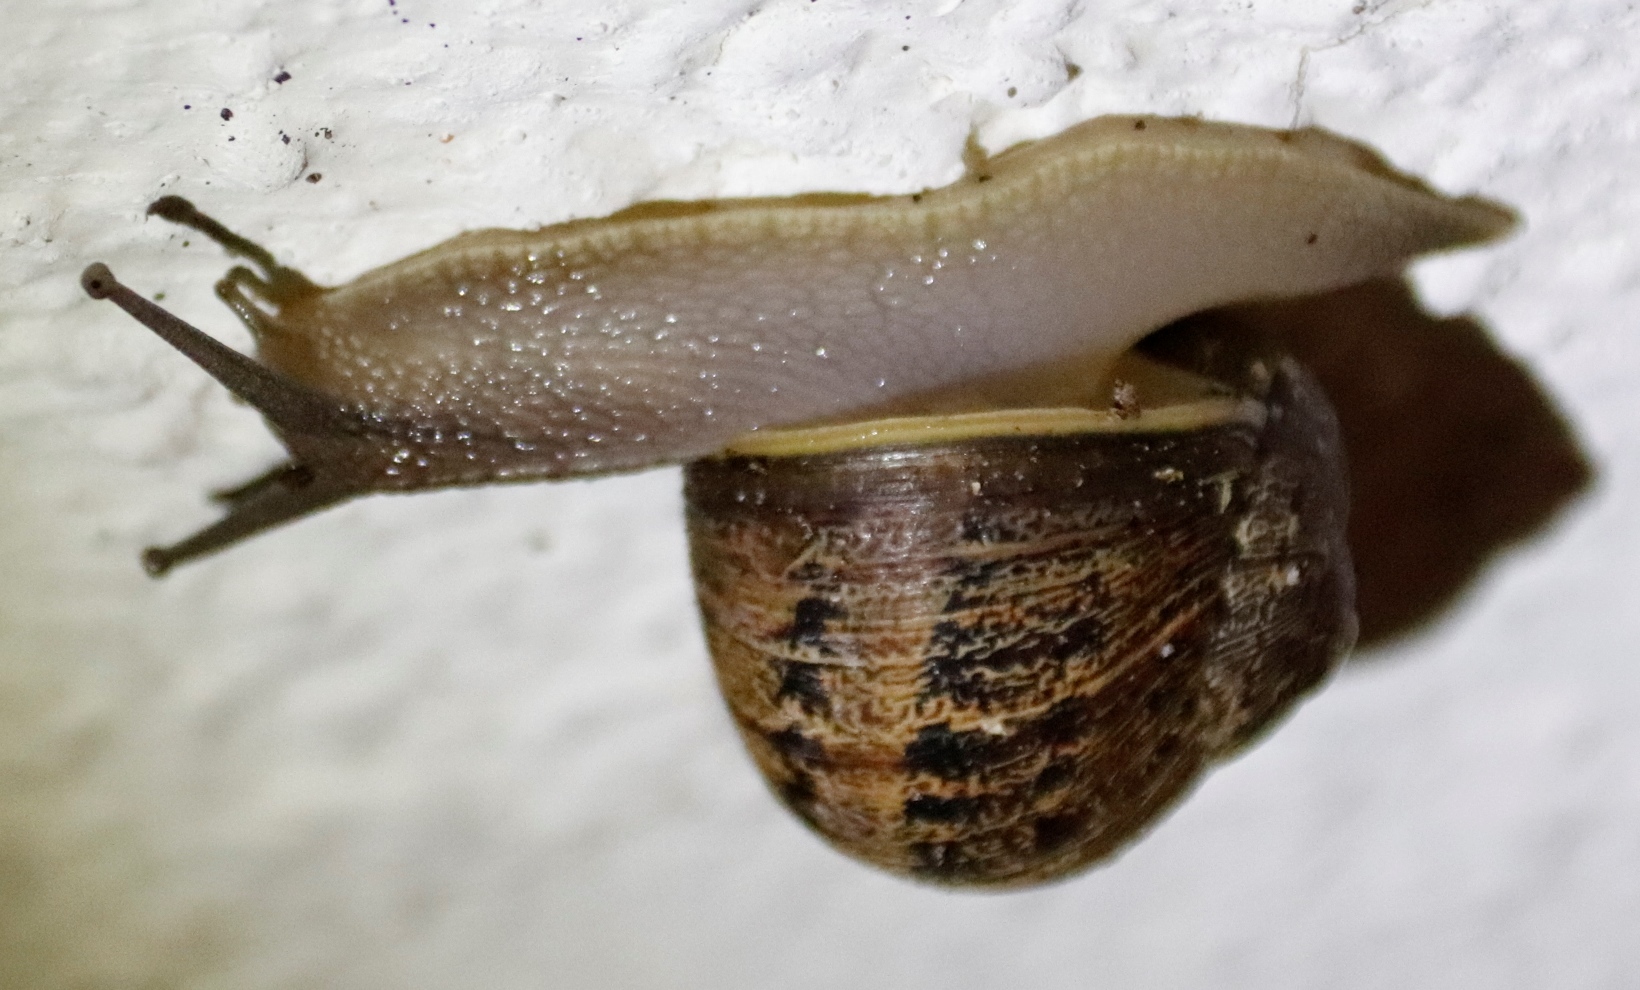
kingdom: Animalia
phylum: Mollusca
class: Gastropoda
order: Stylommatophora
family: Helicidae
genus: Cornu
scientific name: Cornu aspersum
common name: Brown garden snail
